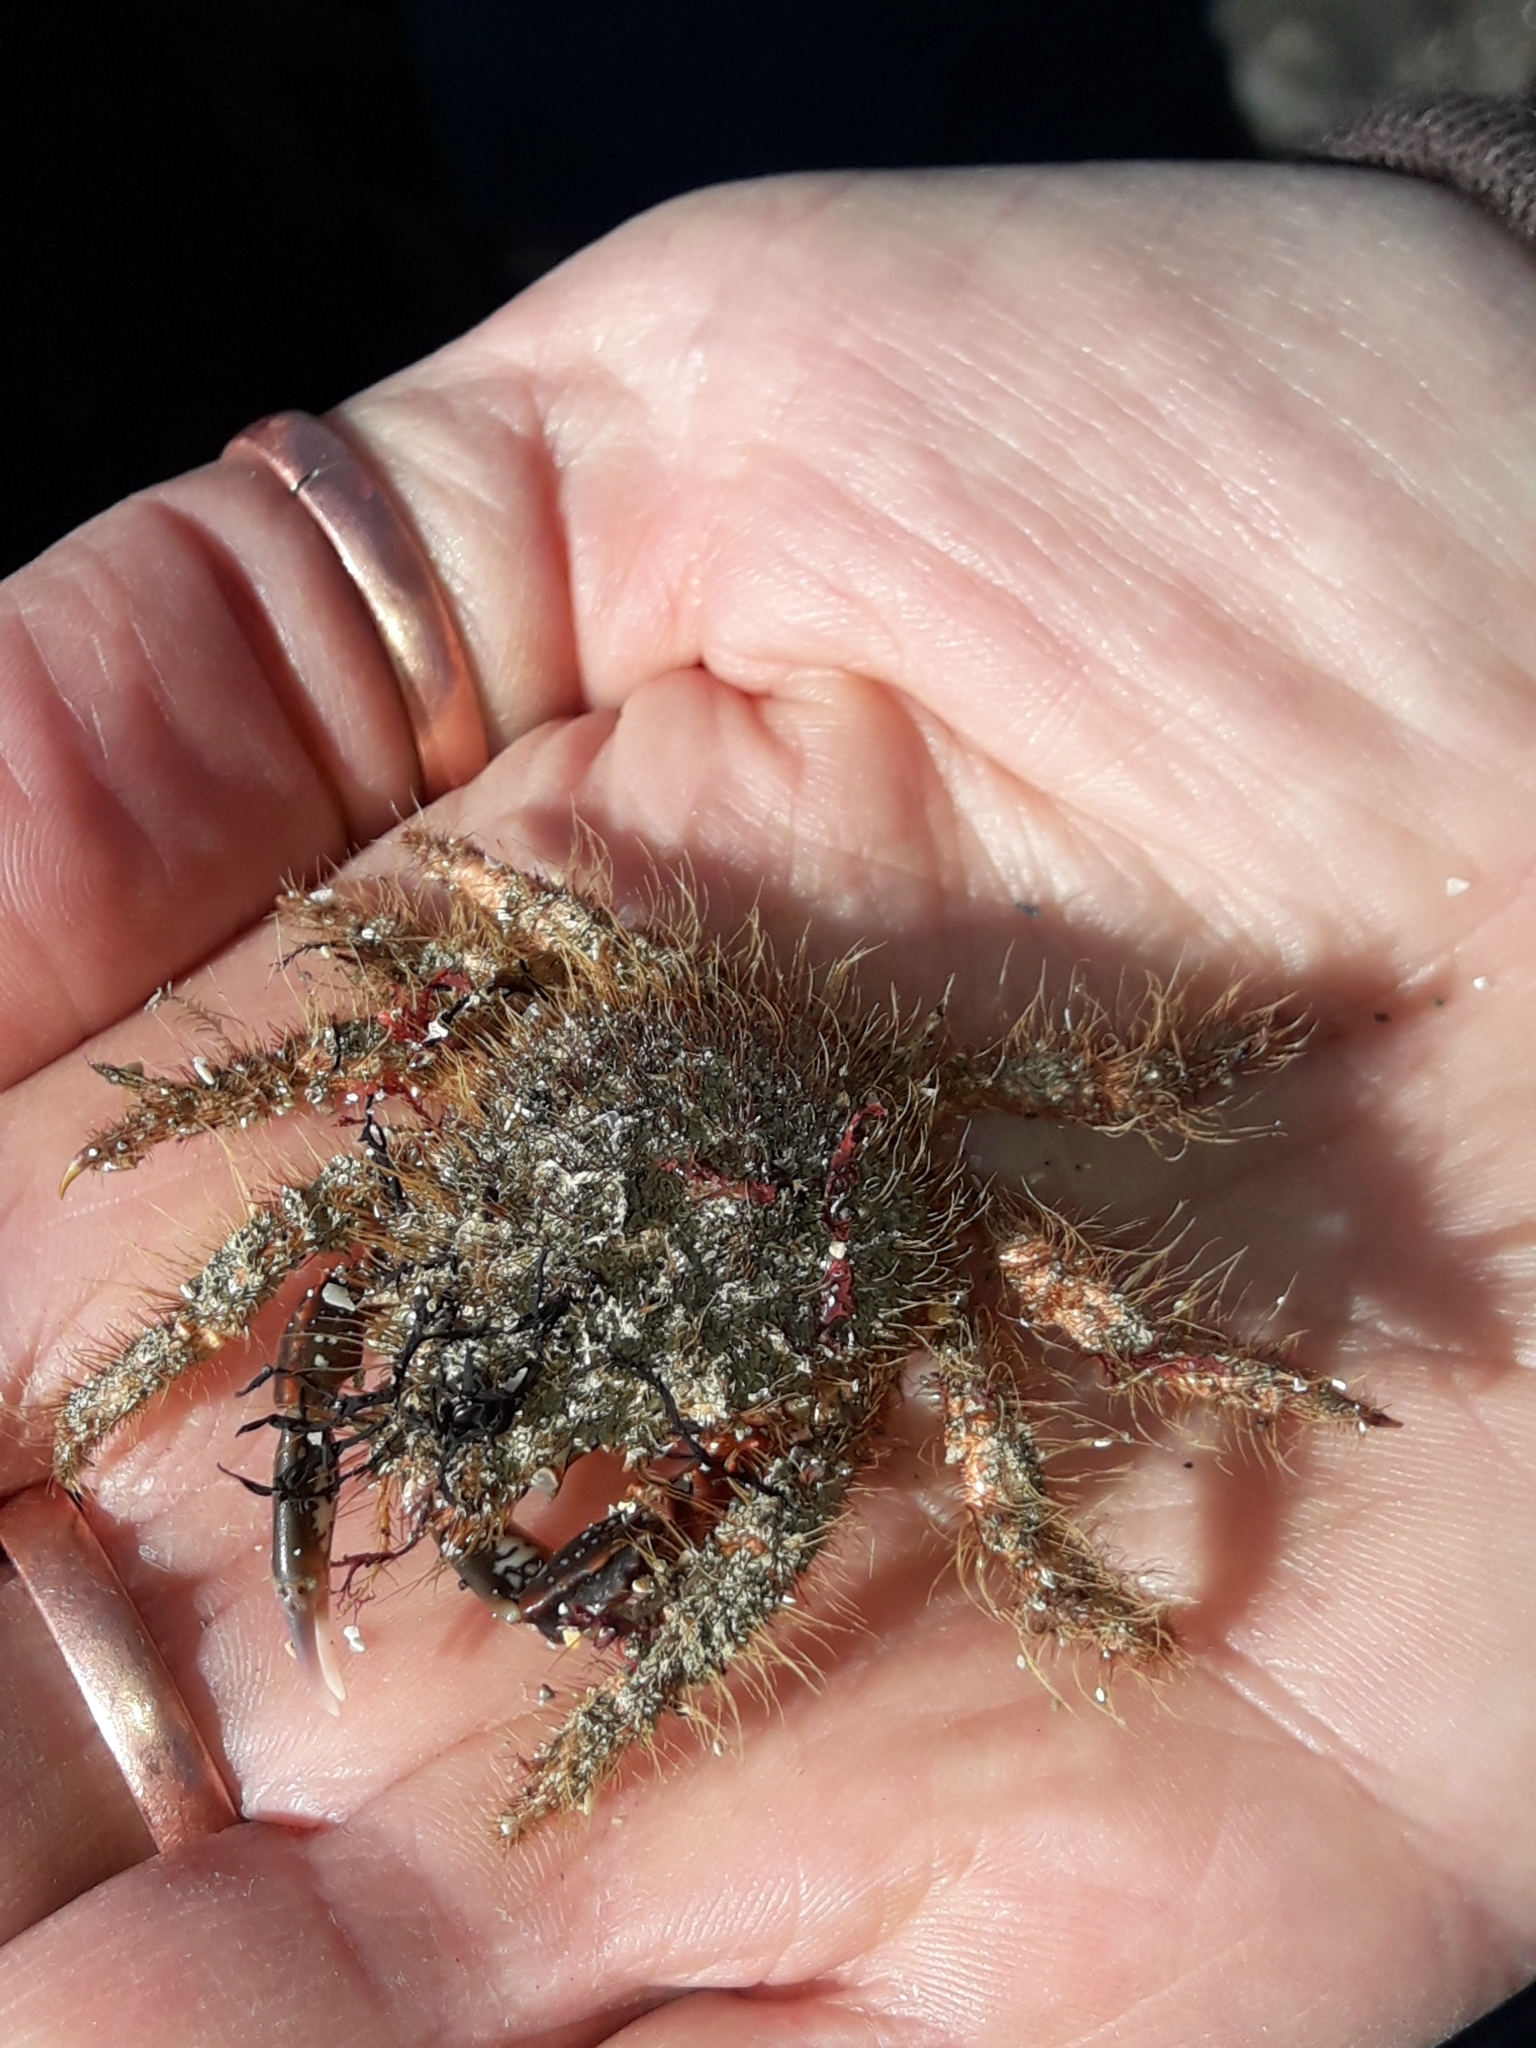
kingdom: Animalia
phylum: Arthropoda
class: Malacostraca
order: Decapoda
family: Majidae
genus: Notomithrax
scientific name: Notomithrax ursus
